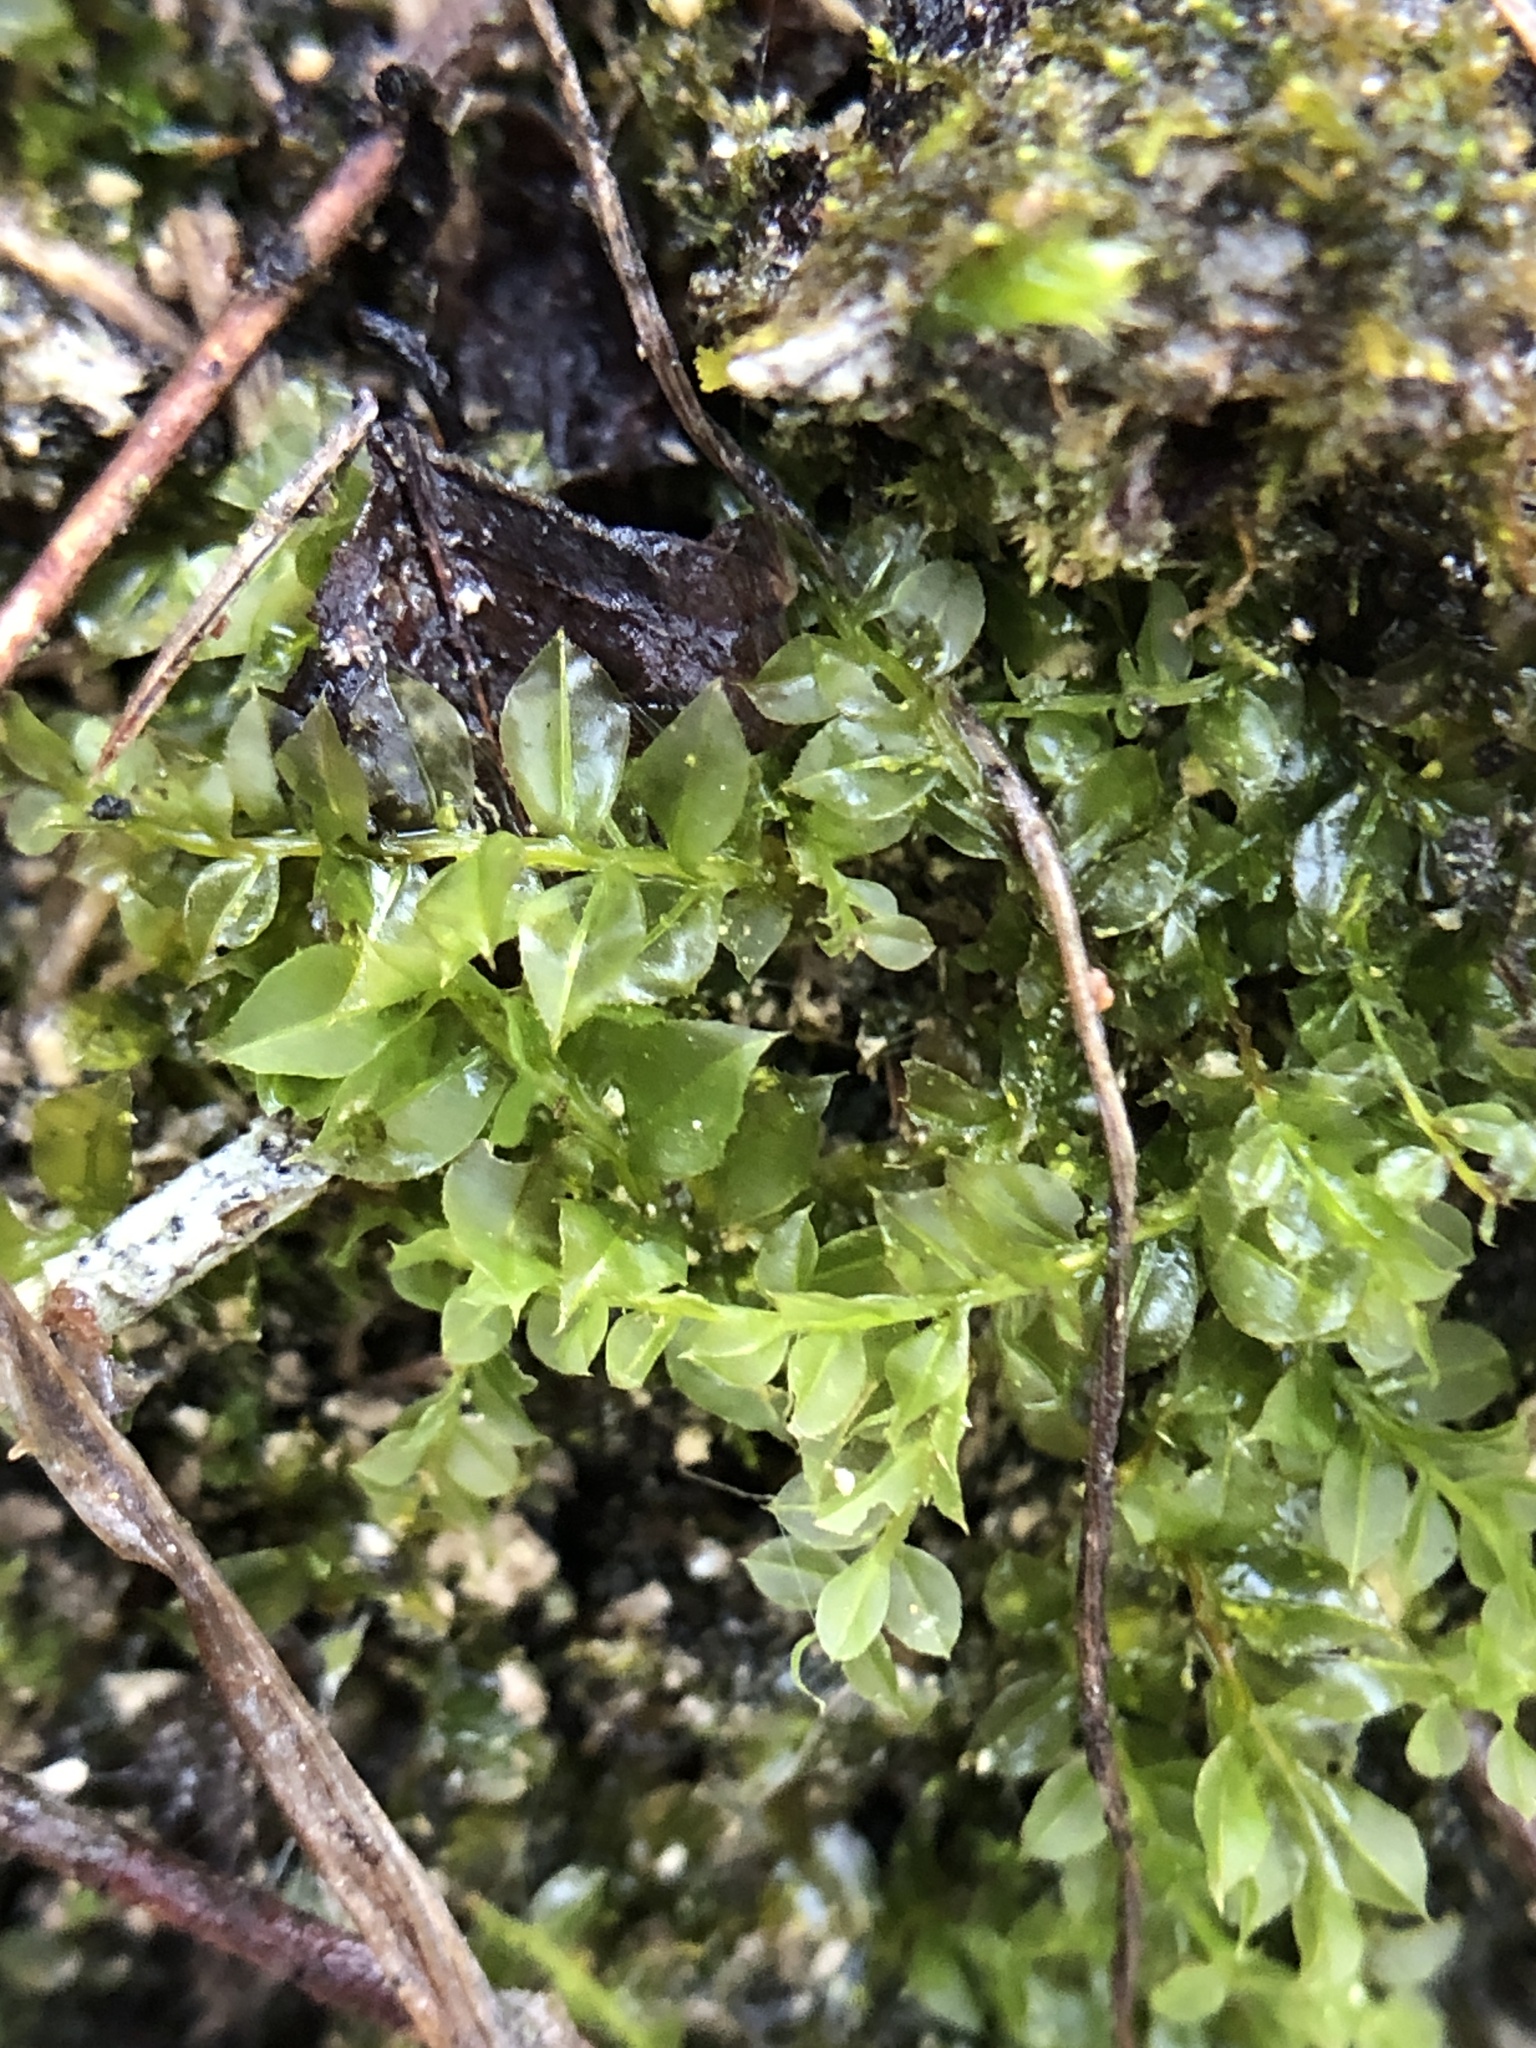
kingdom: Plantae
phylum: Bryophyta
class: Bryopsida
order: Bryales
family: Mniaceae
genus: Plagiomnium
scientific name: Plagiomnium cuspidatum
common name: Woodsy leafy moss
